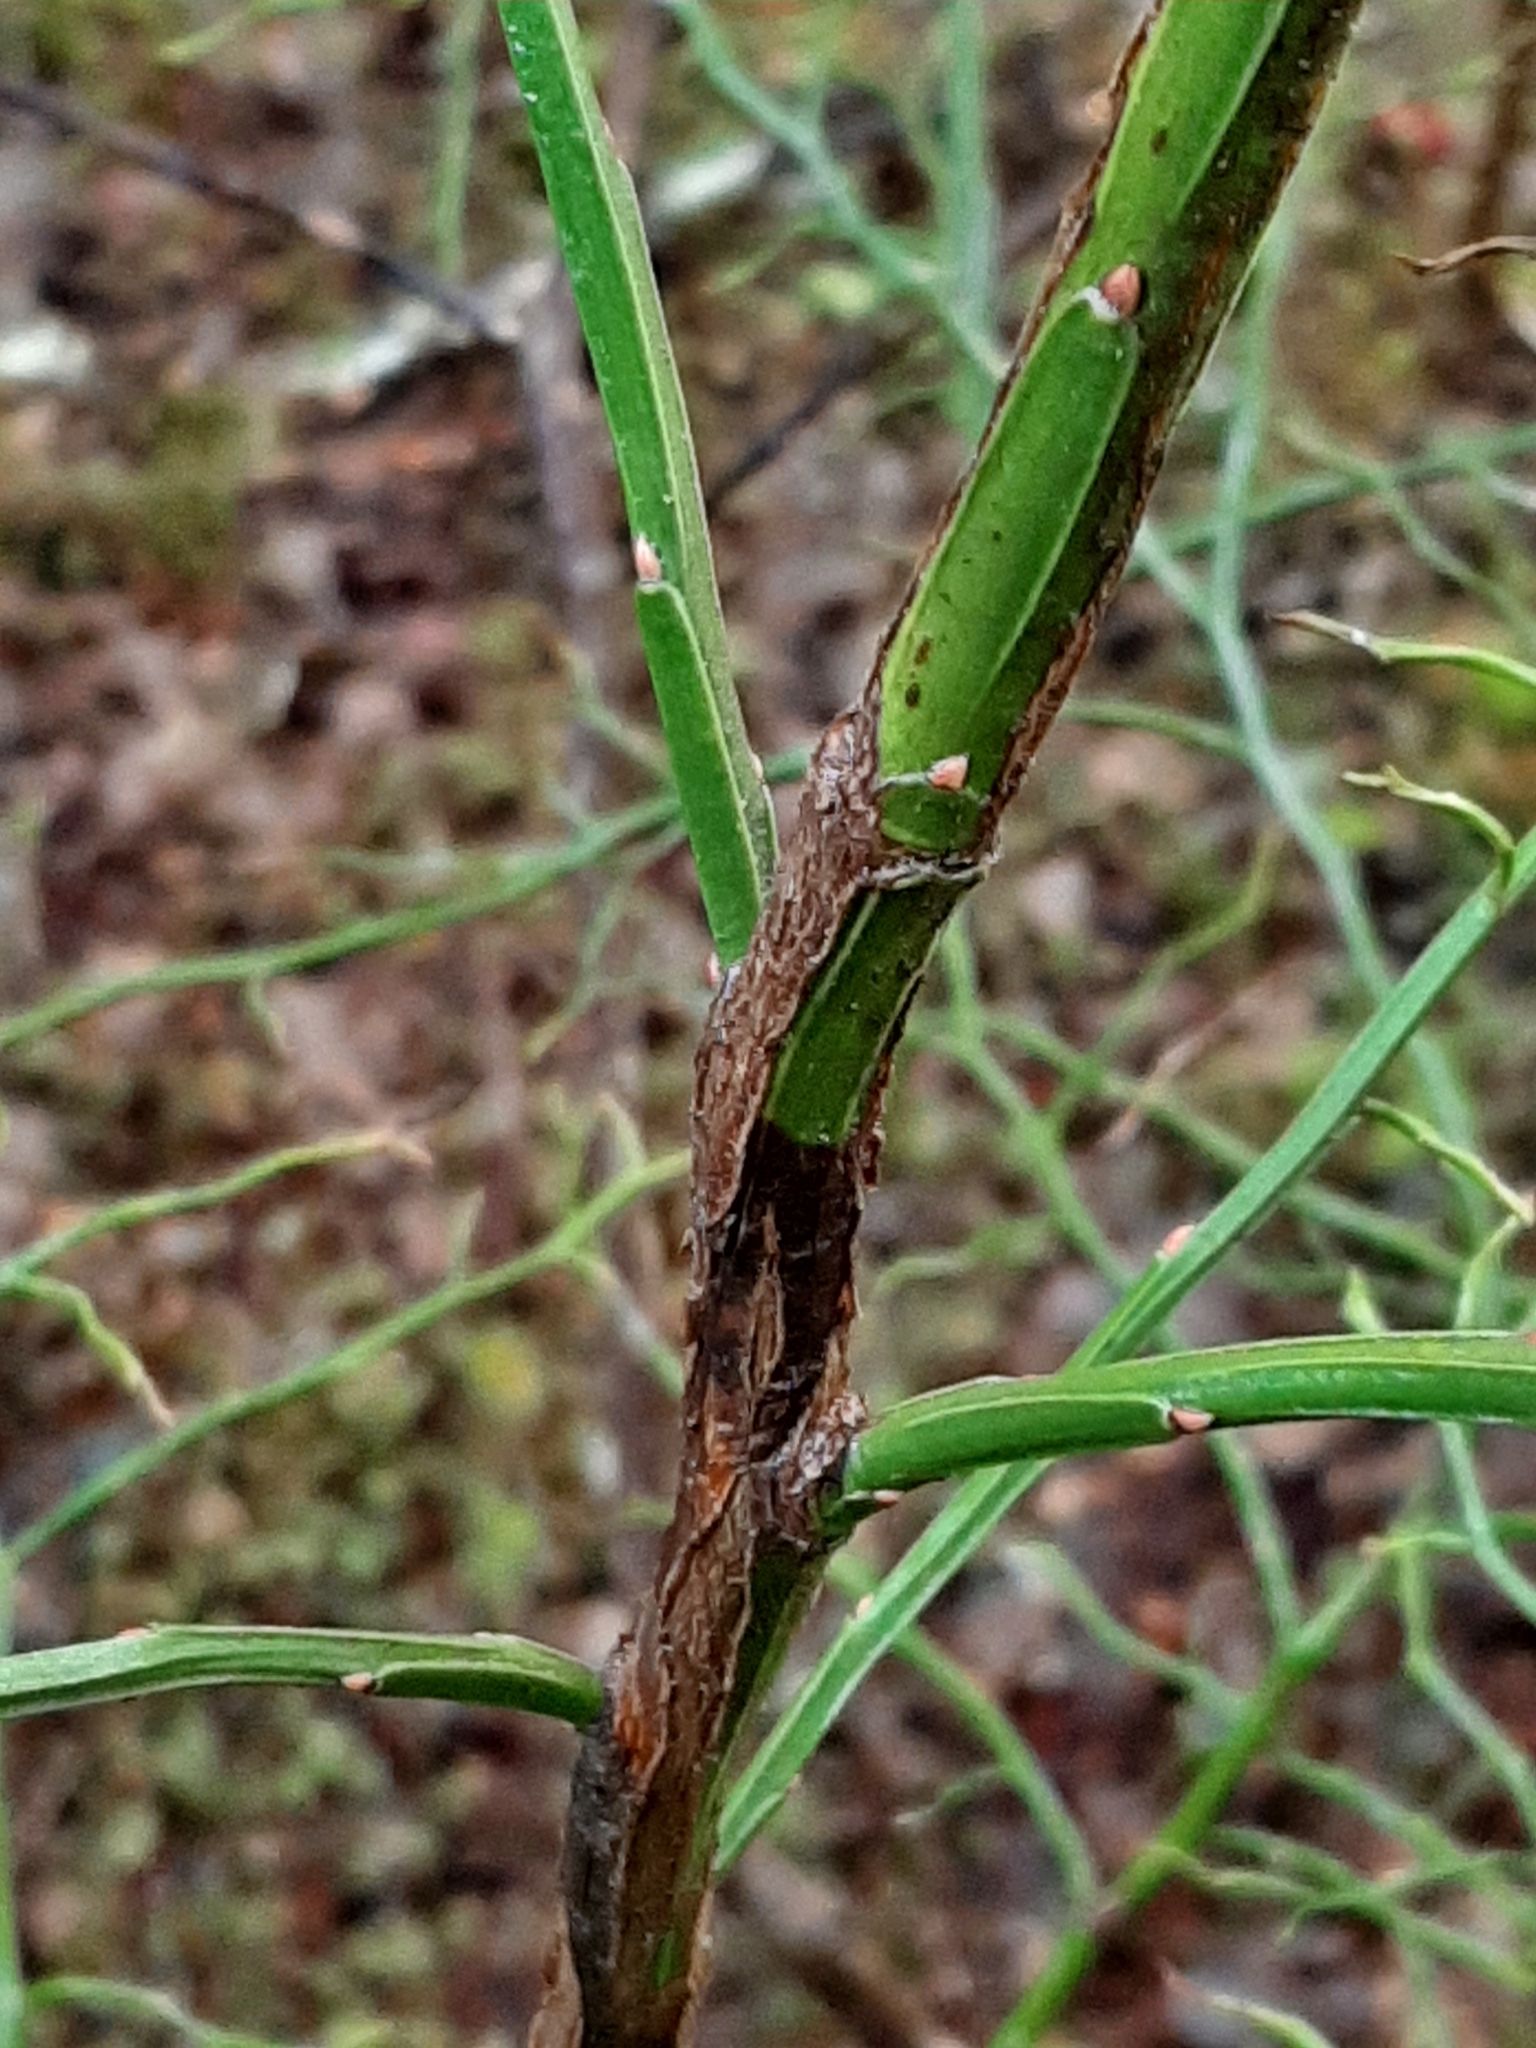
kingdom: Plantae
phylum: Tracheophyta
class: Magnoliopsida
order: Ericales
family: Ericaceae
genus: Vaccinium
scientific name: Vaccinium parvifolium
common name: Red-huckleberry
